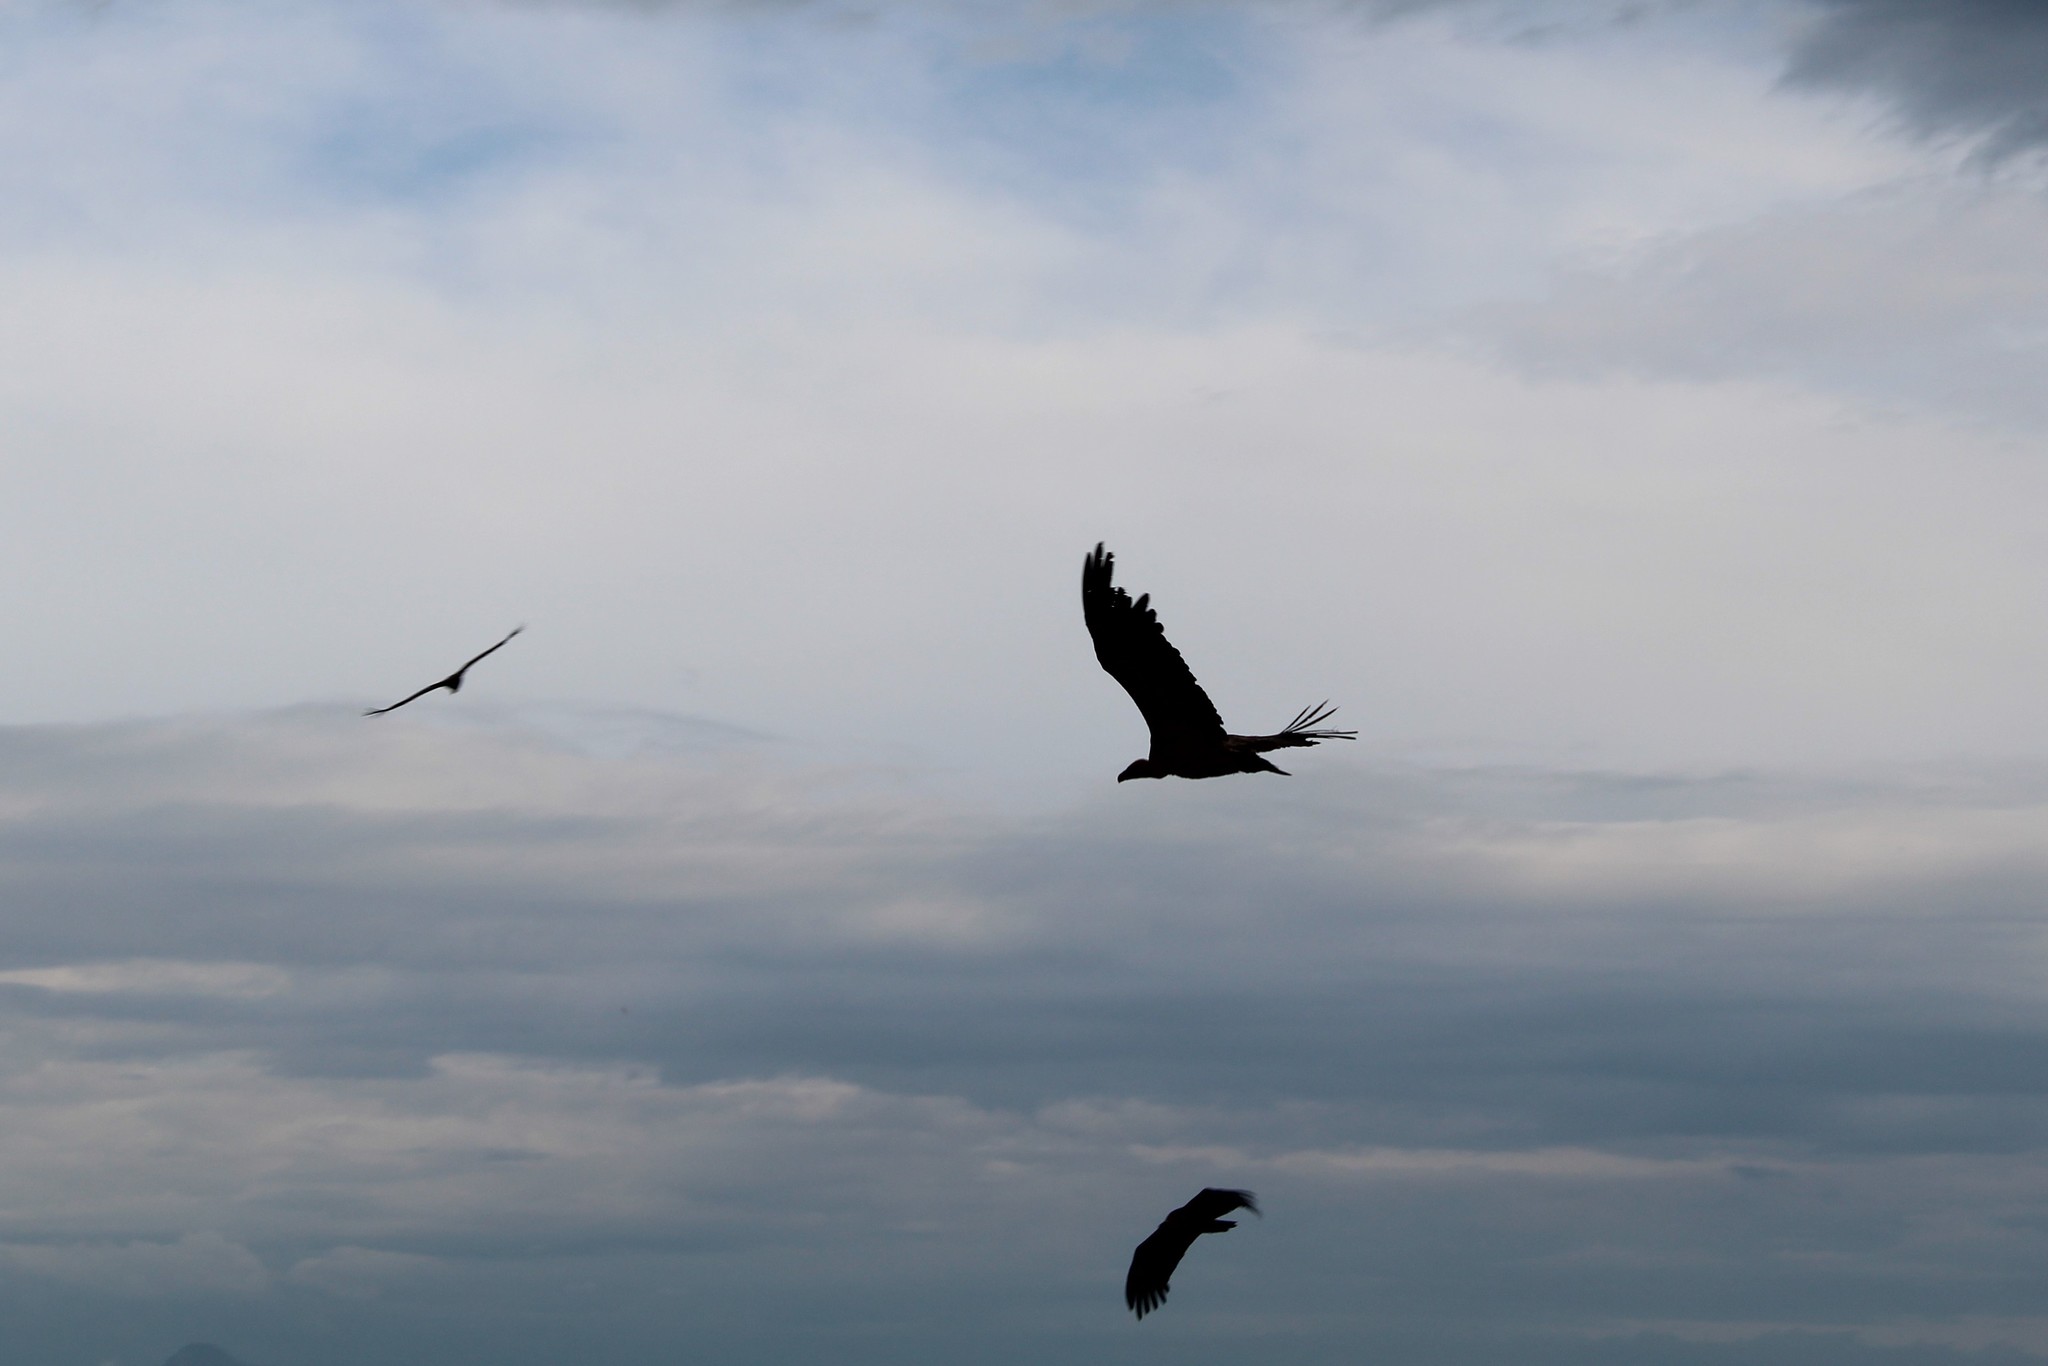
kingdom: Animalia
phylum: Chordata
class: Aves
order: Accipitriformes
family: Accipitridae
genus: Gyps
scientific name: Gyps fulvus
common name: Griffon vulture
